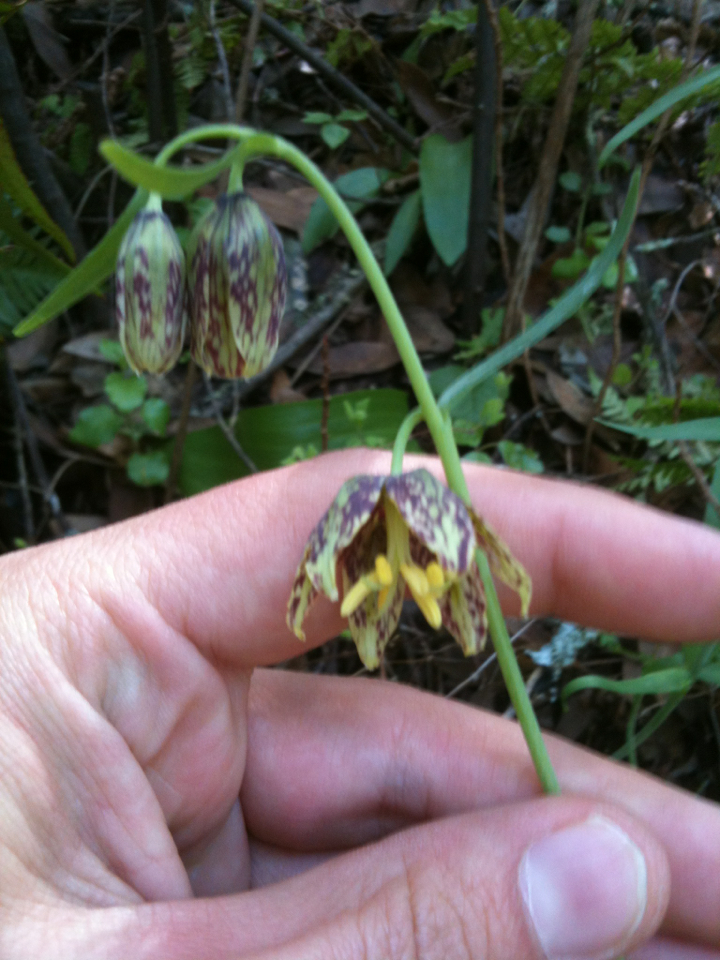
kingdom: Plantae
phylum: Tracheophyta
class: Liliopsida
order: Liliales
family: Liliaceae
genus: Fritillaria
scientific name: Fritillaria affinis
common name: Ojai fritillary
